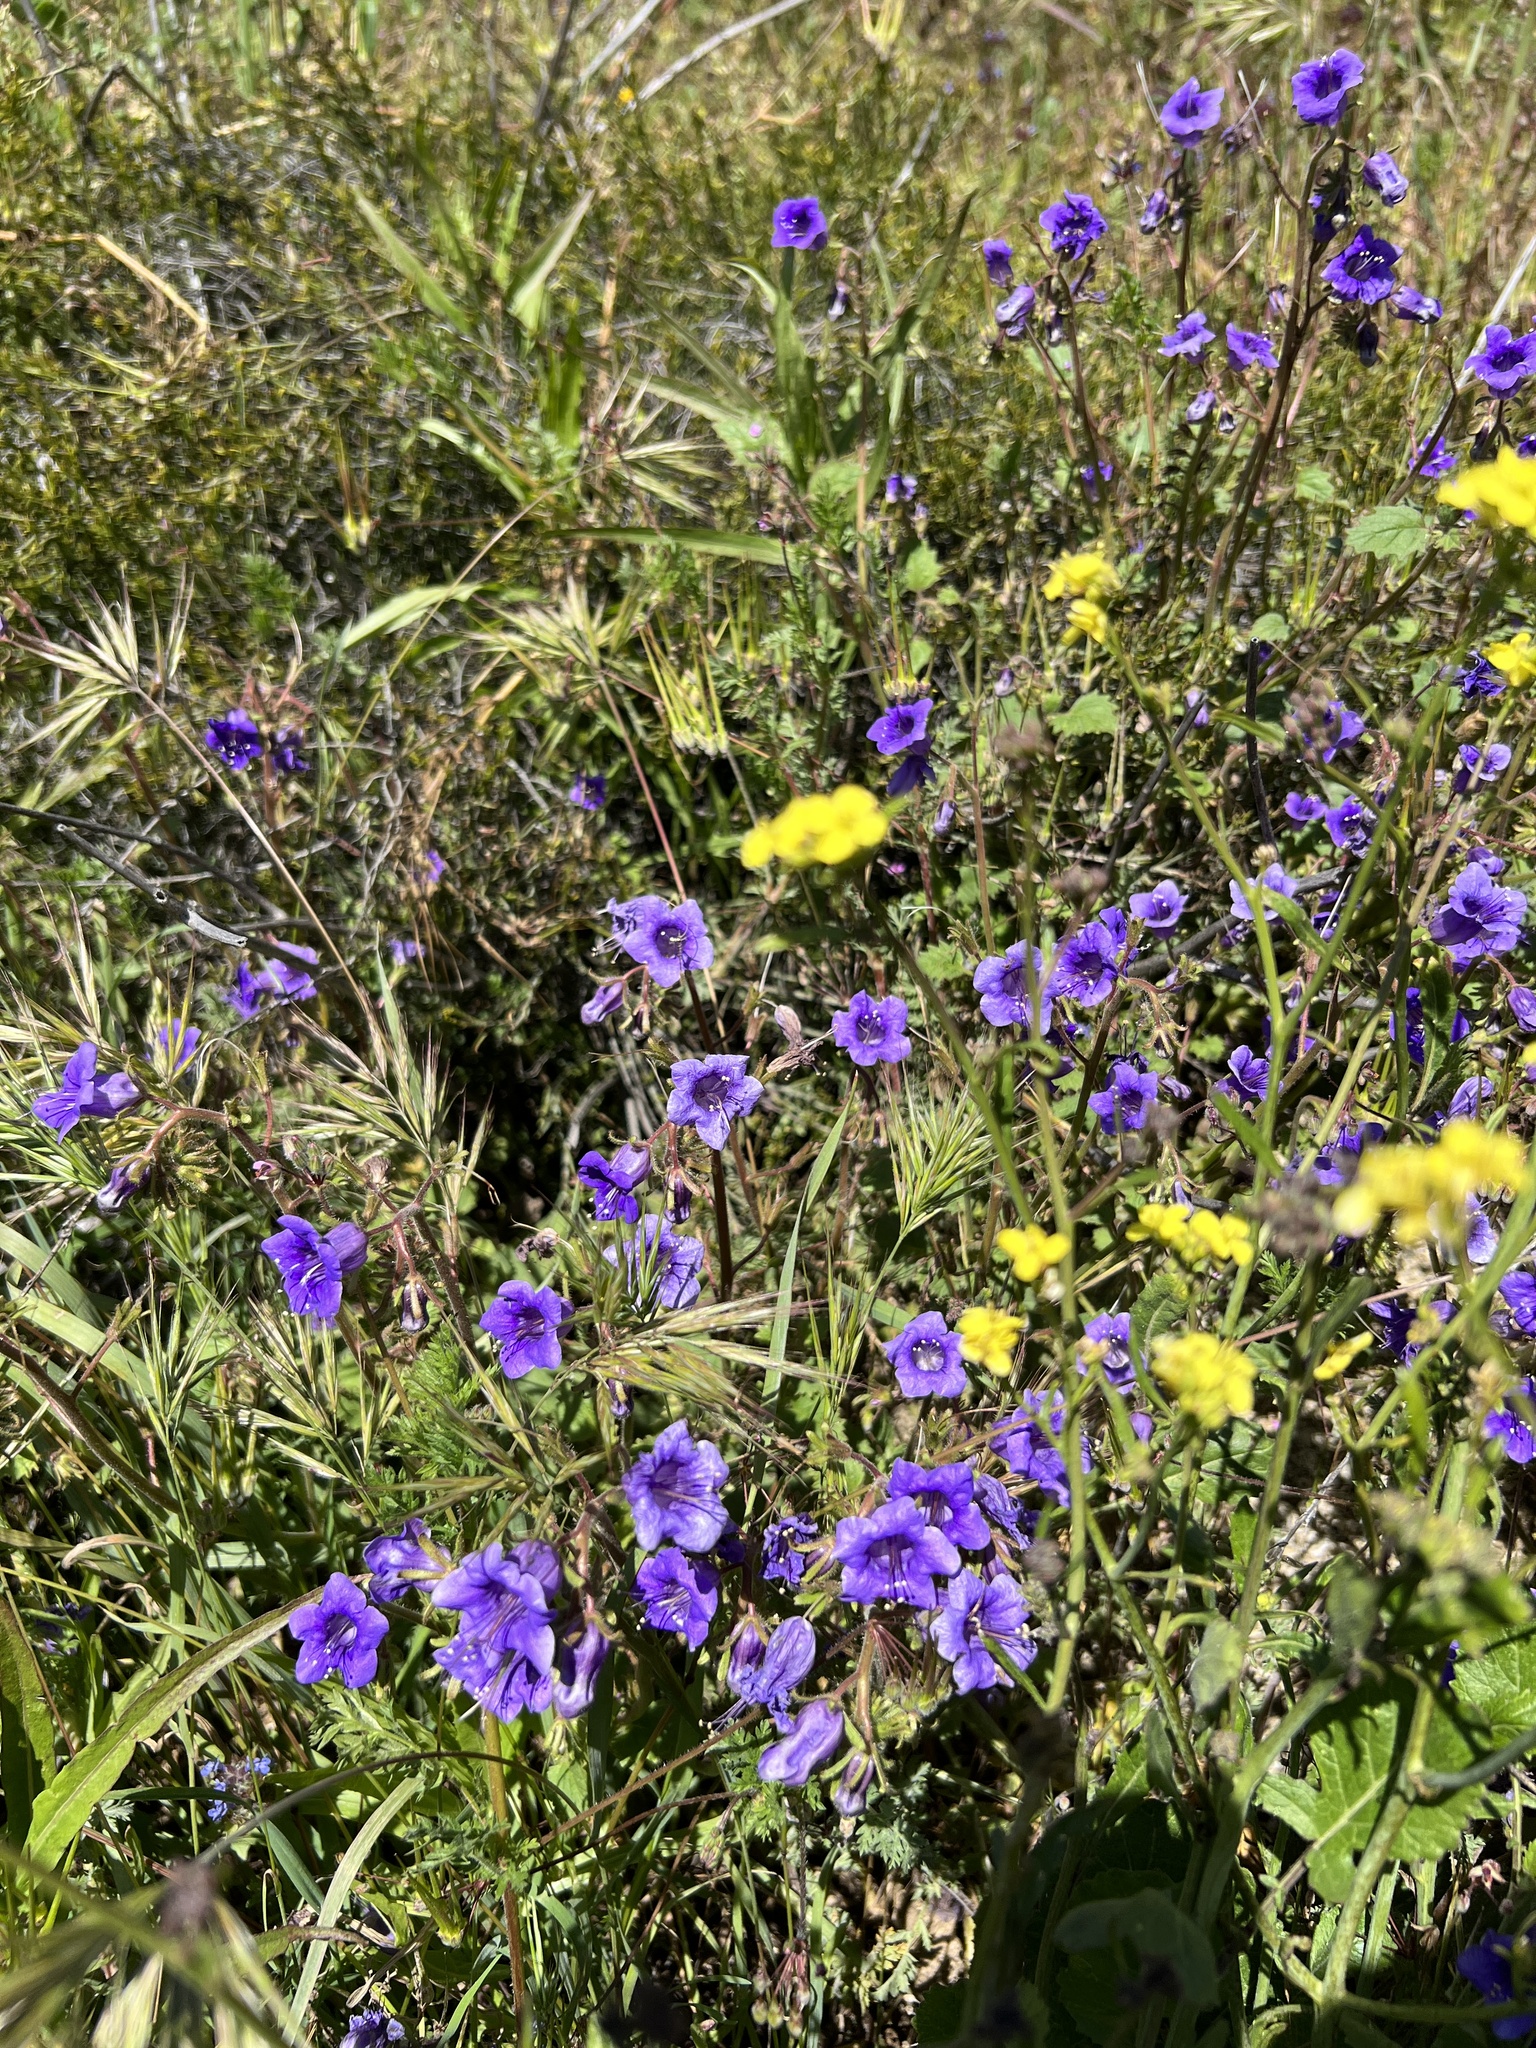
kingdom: Plantae
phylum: Tracheophyta
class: Magnoliopsida
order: Boraginales
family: Hydrophyllaceae
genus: Phacelia
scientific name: Phacelia minor
